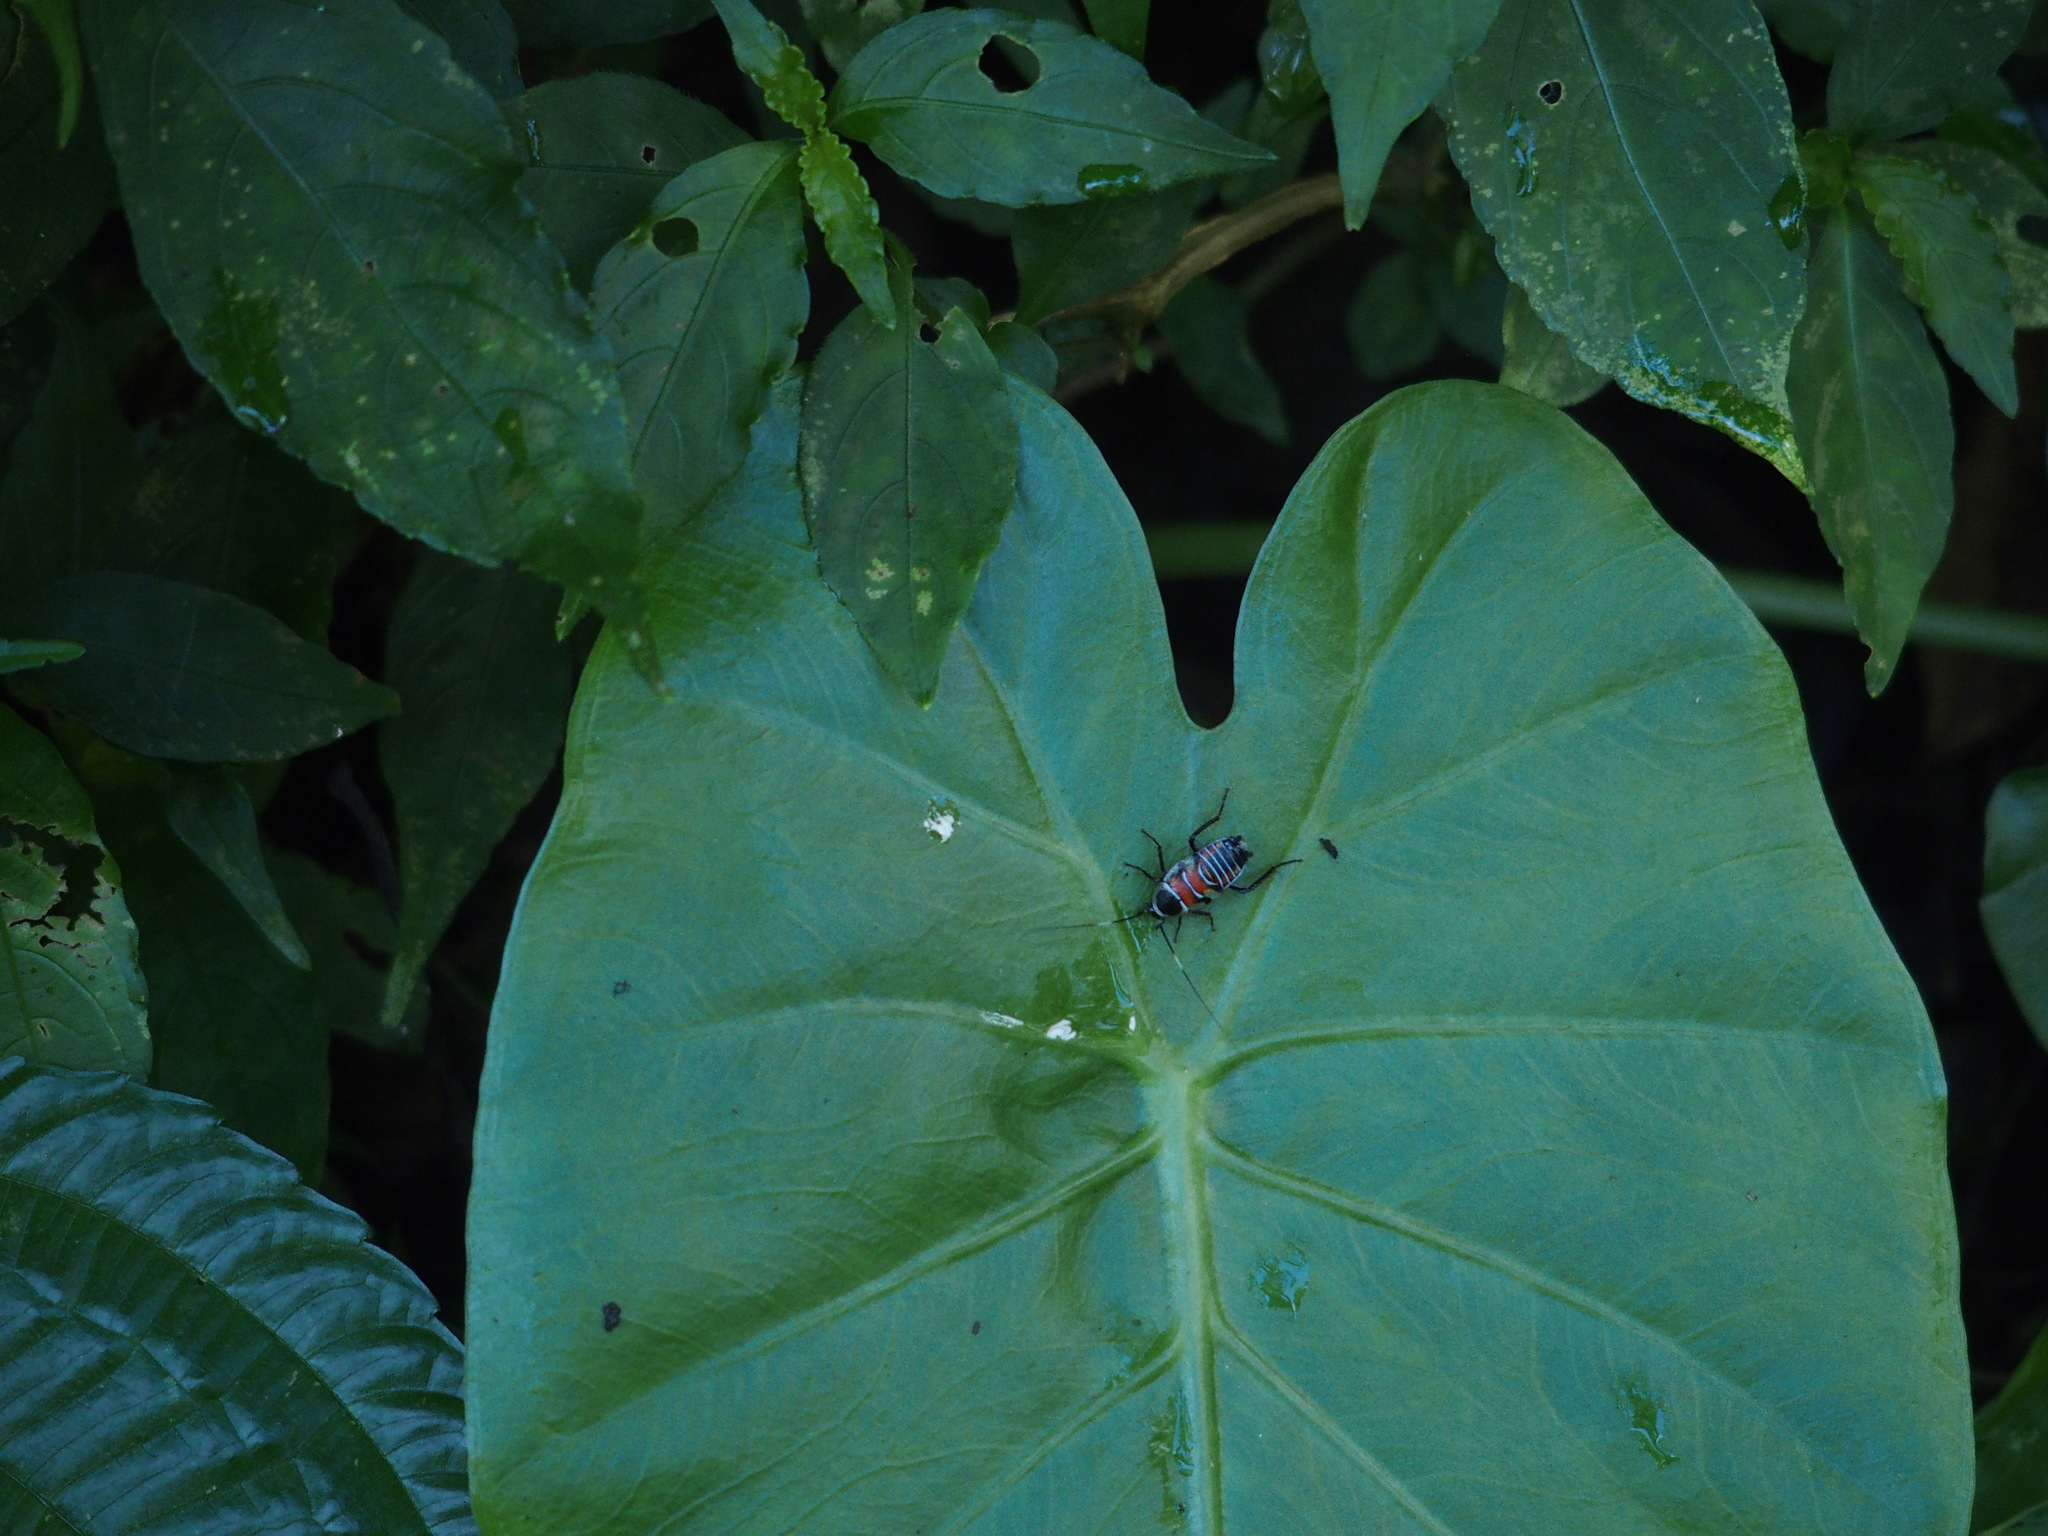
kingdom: Animalia
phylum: Arthropoda
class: Insecta
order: Blattodea
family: Ectobiidae
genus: Hemithyrsocera
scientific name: Hemithyrsocera vittata
